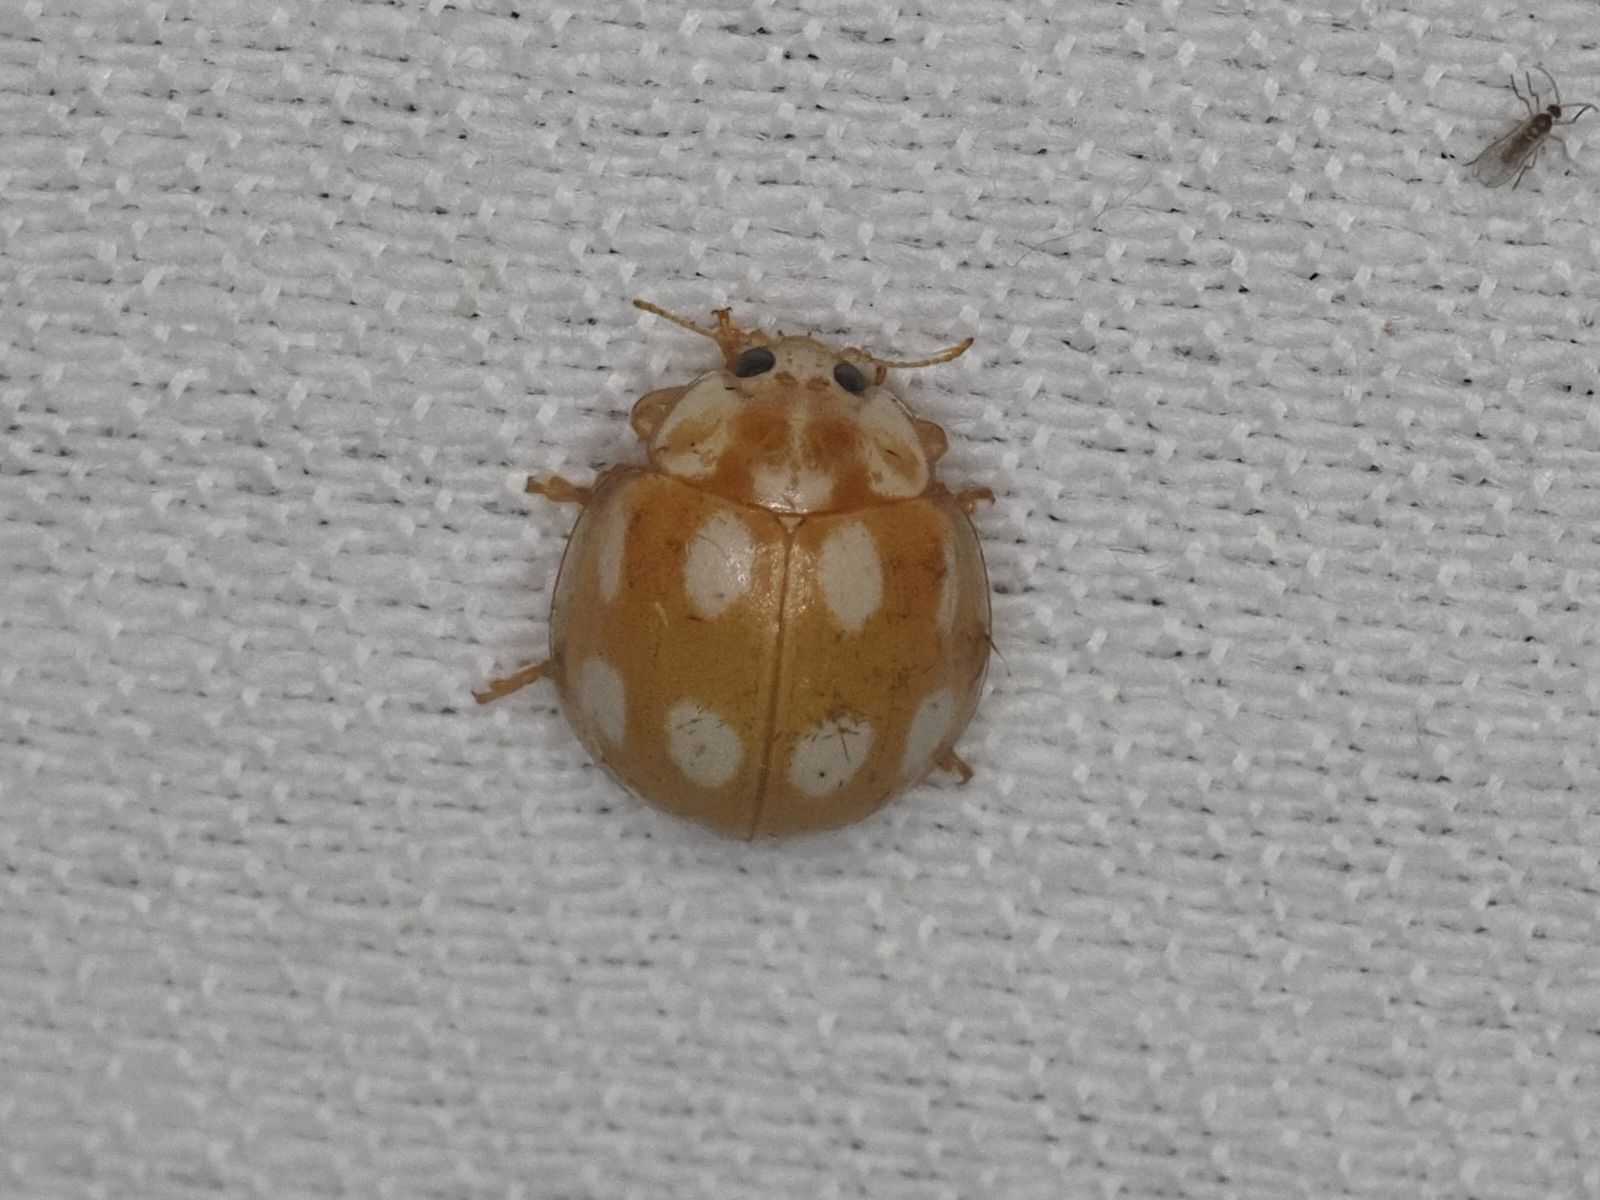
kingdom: Animalia
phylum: Arthropoda
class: Insecta
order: Coleoptera
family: Coccinellidae
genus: Calvia
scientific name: Calvia decemguttata
